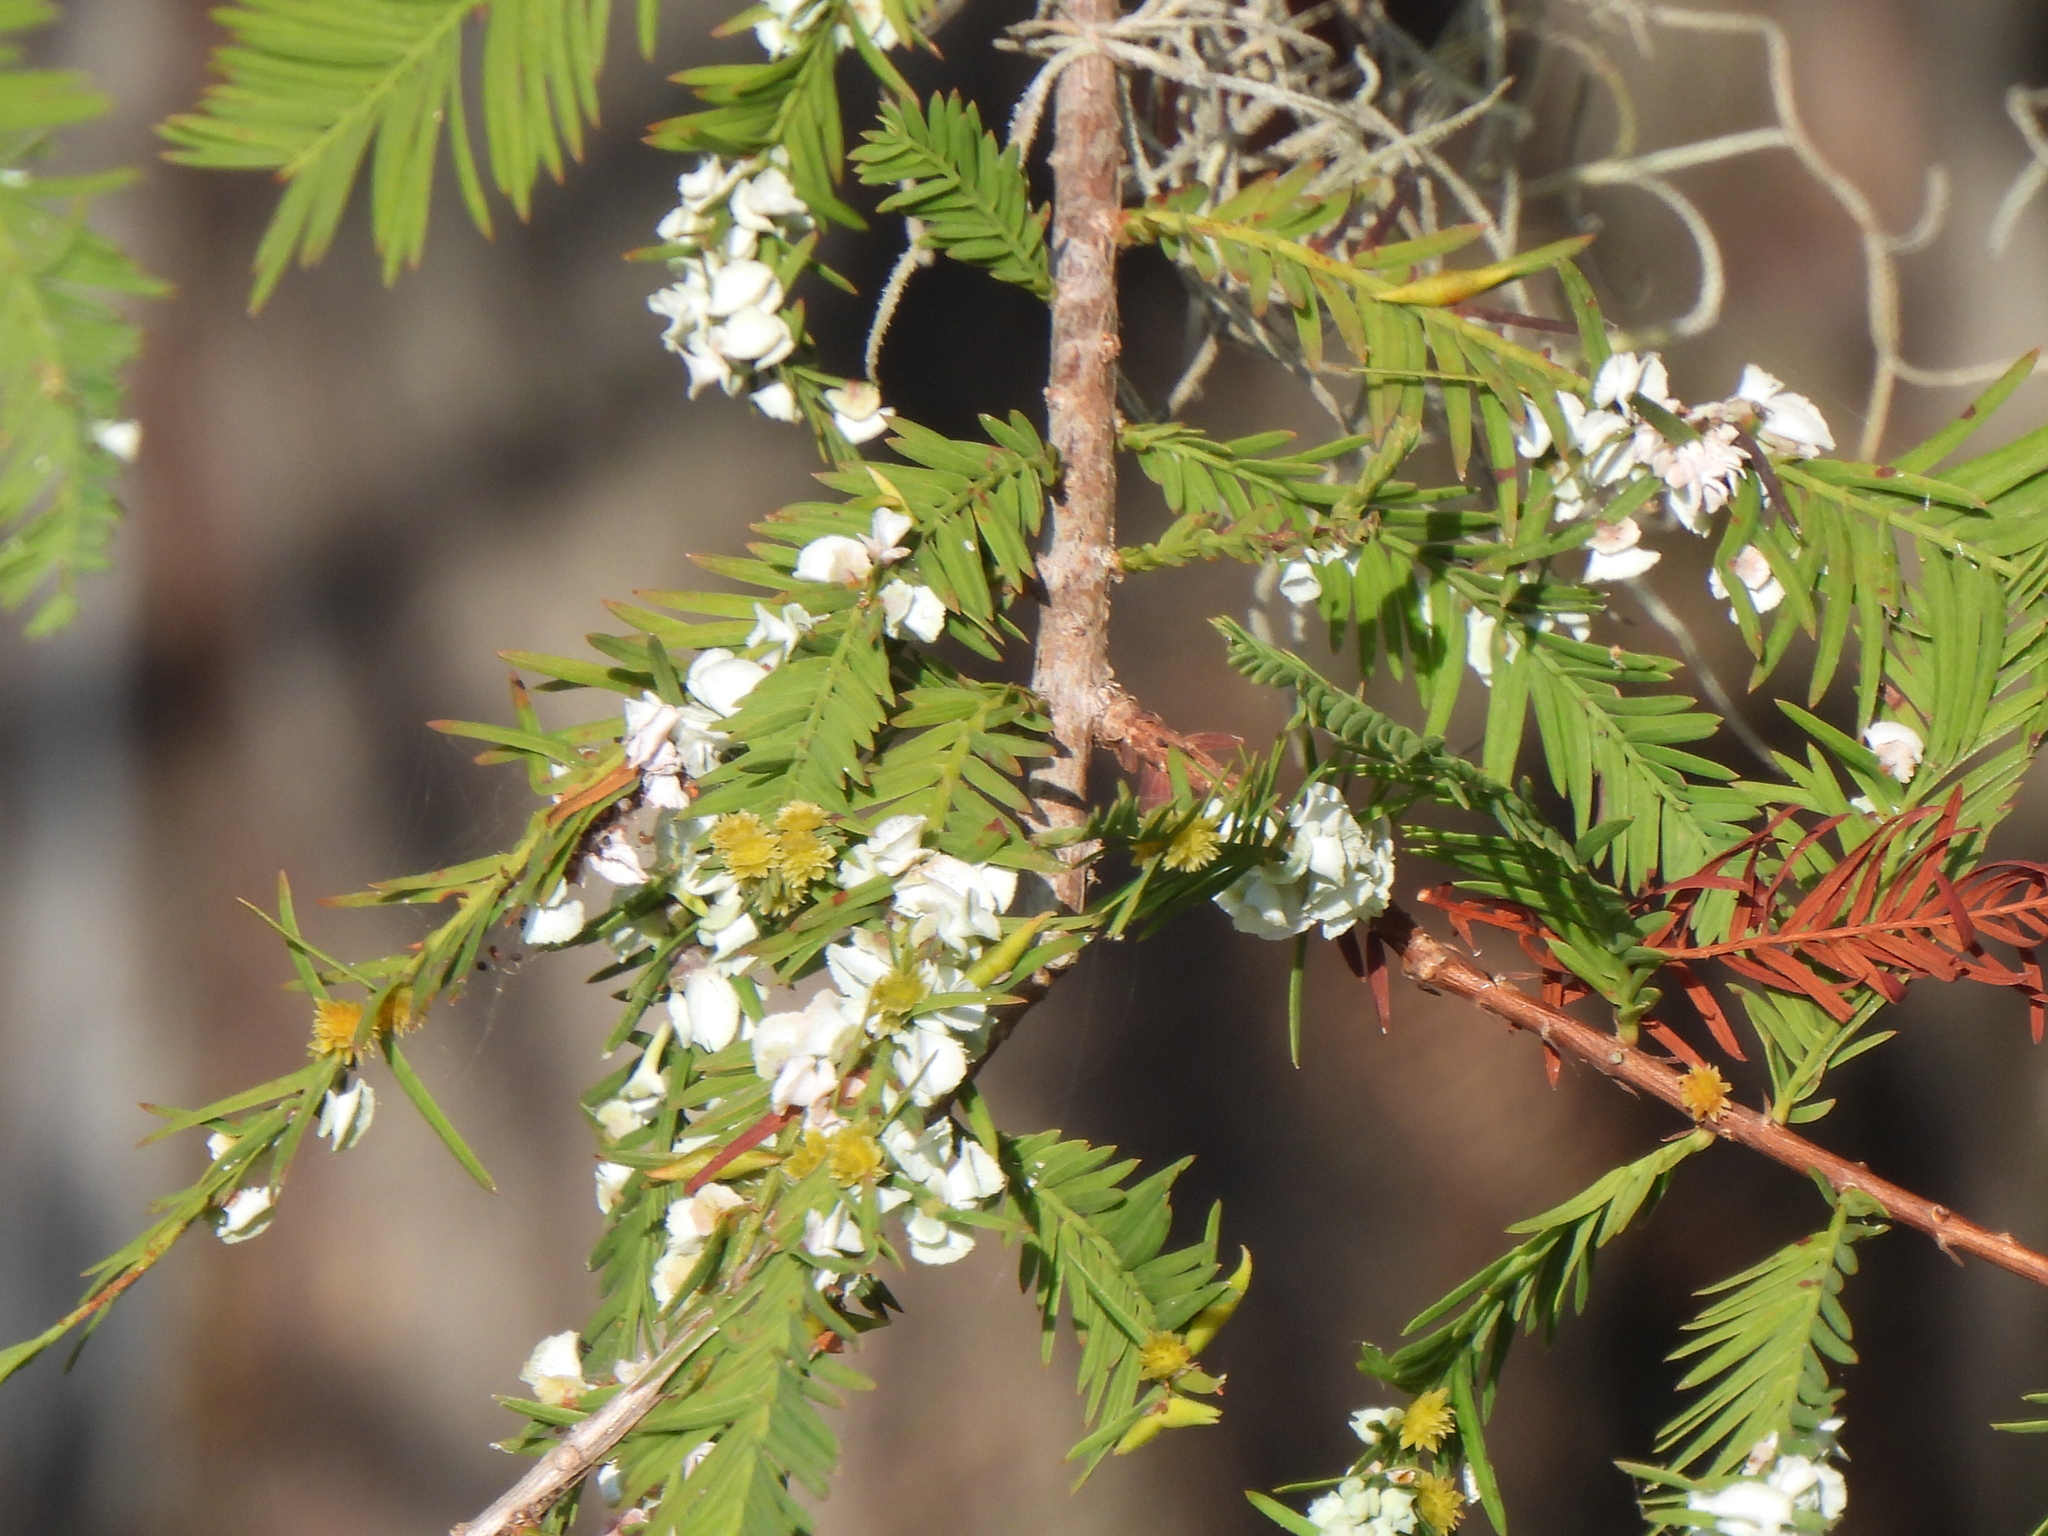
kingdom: Animalia
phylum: Arthropoda
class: Insecta
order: Diptera
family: Cecidomyiidae
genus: Taxodiomyia
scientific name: Taxodiomyia cupressi
